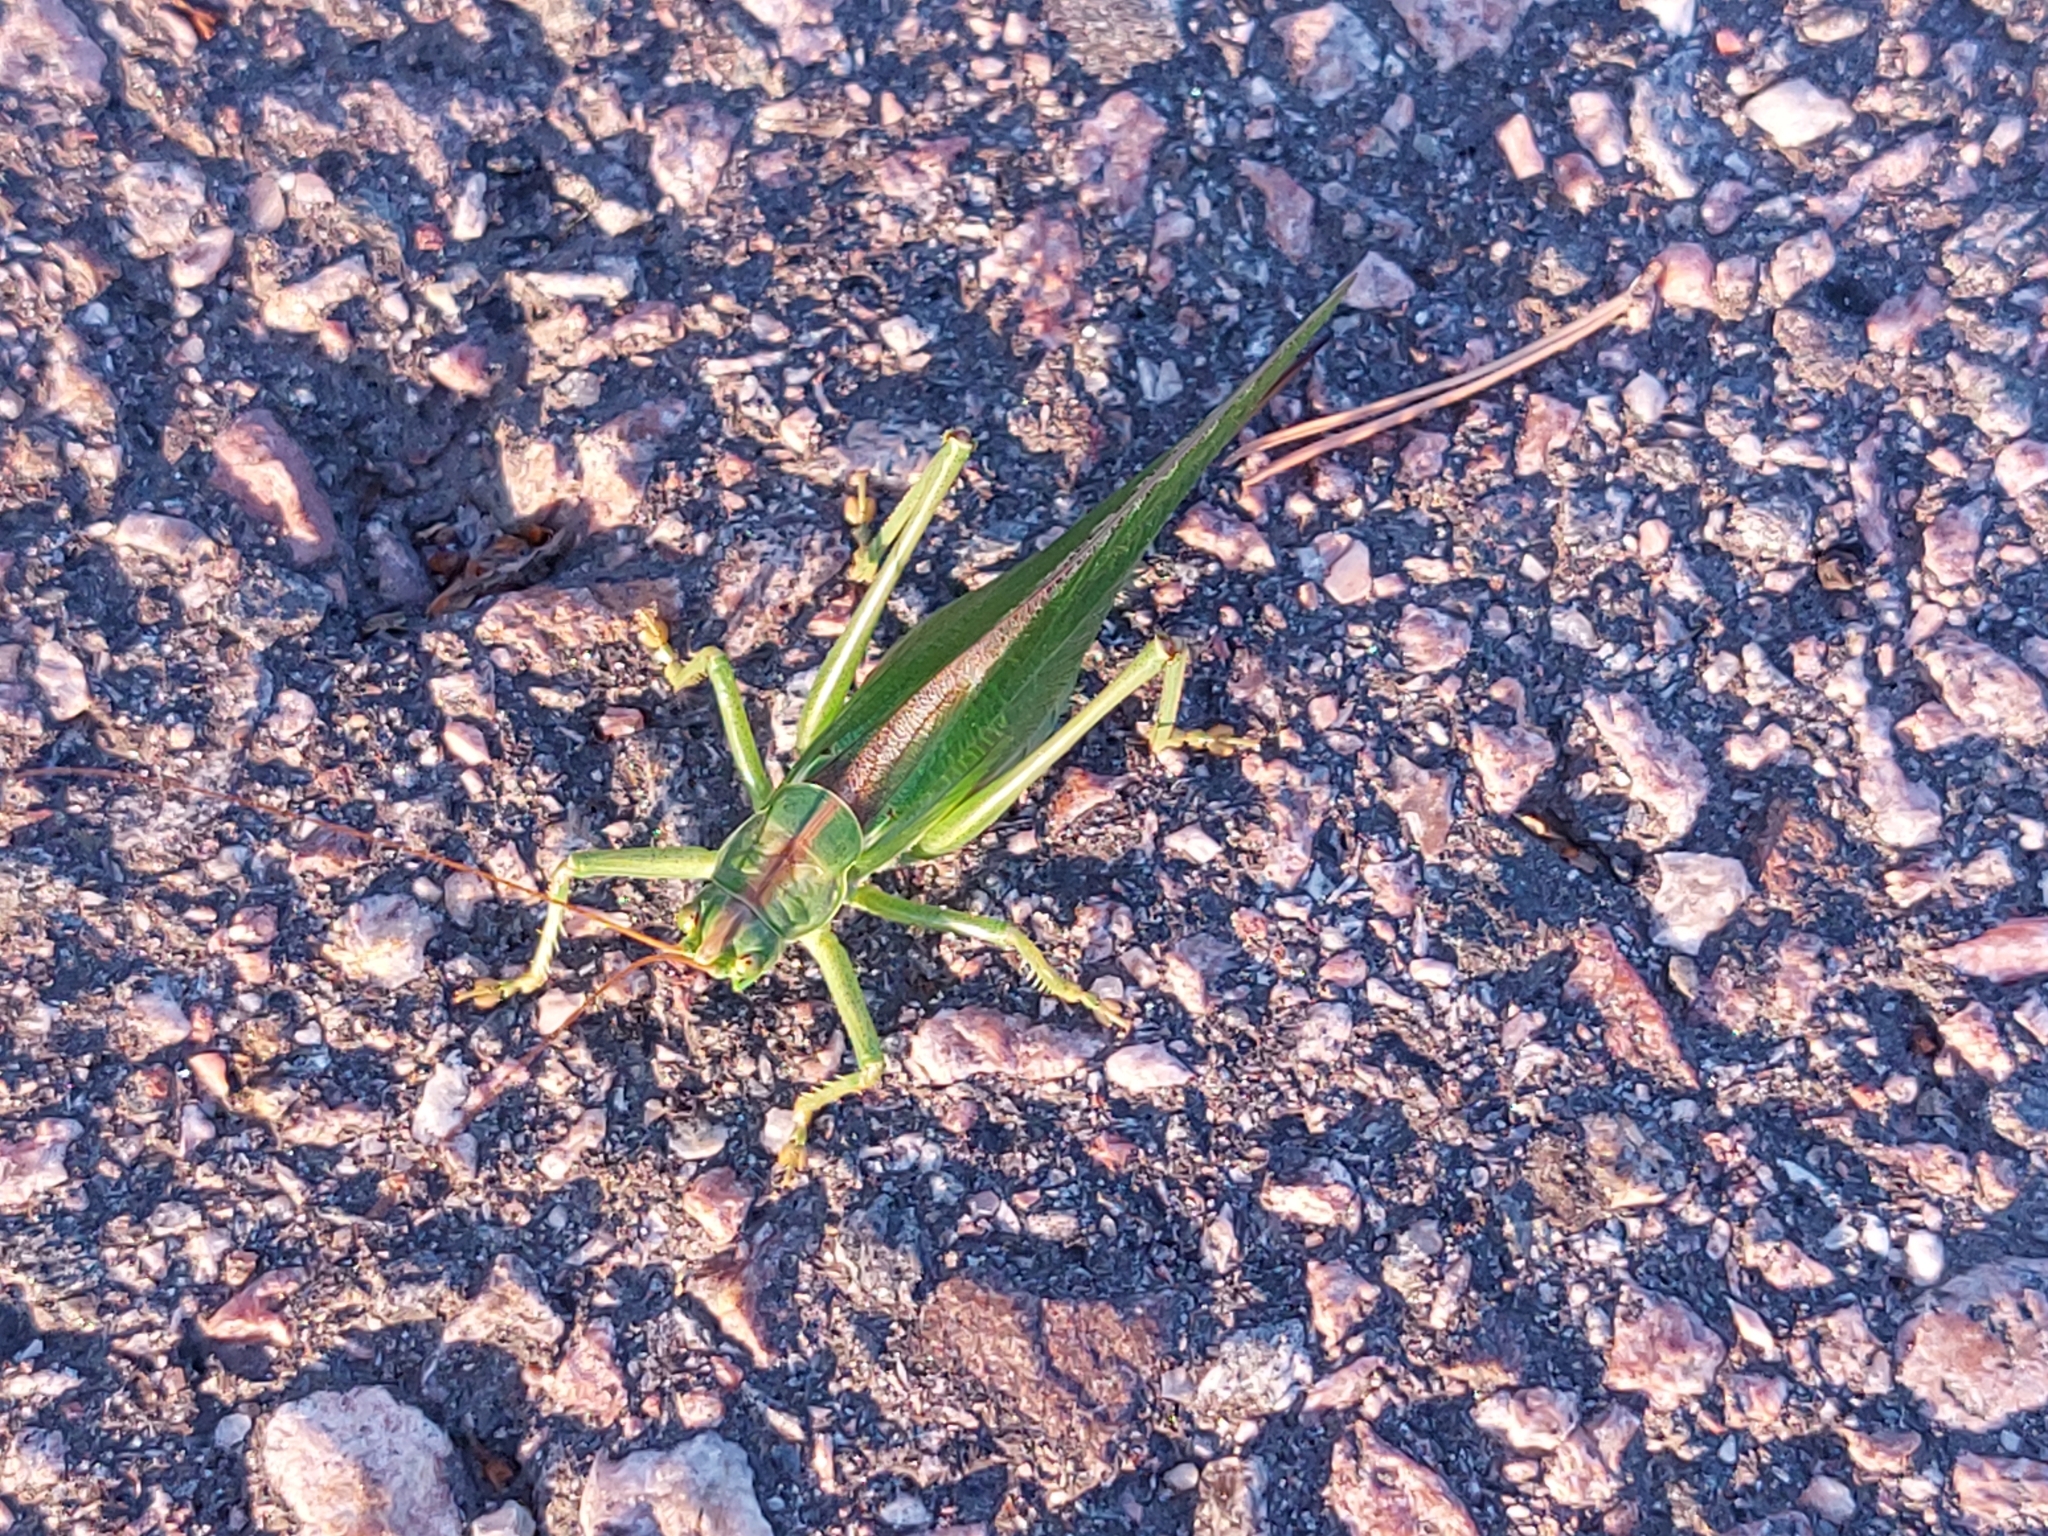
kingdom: Animalia
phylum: Arthropoda
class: Insecta
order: Orthoptera
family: Tettigoniidae
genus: Tettigonia
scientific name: Tettigonia viridissima
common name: Great green bush-cricket
